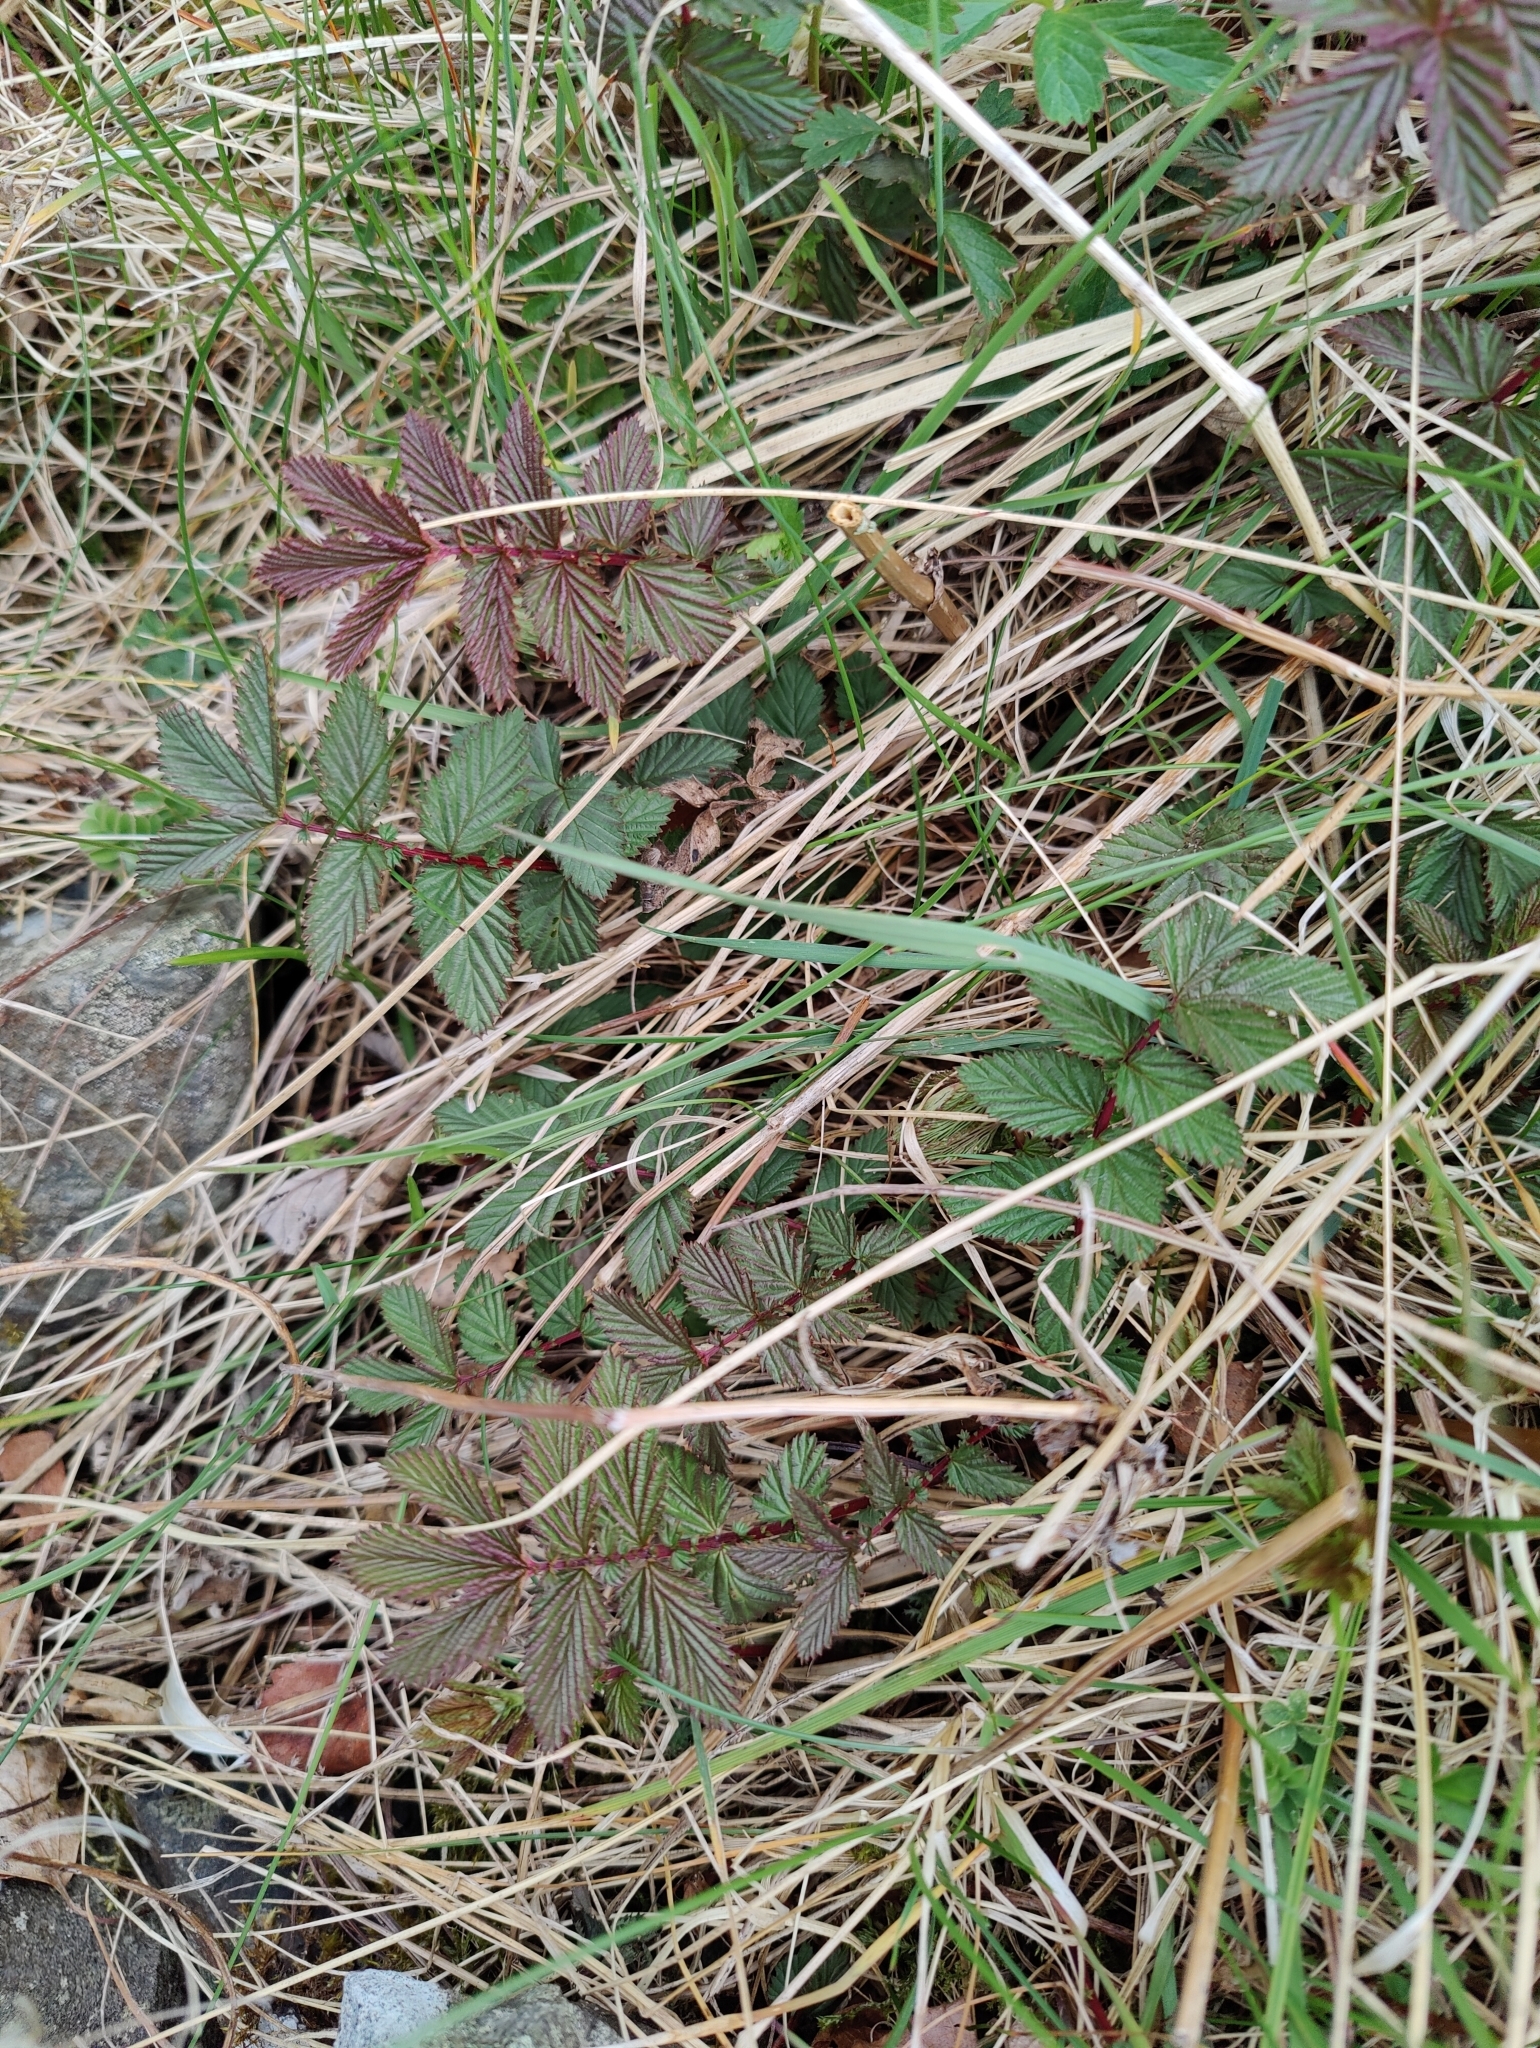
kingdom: Plantae
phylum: Tracheophyta
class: Magnoliopsida
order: Rosales
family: Rosaceae
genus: Filipendula
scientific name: Filipendula ulmaria
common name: Meadowsweet
